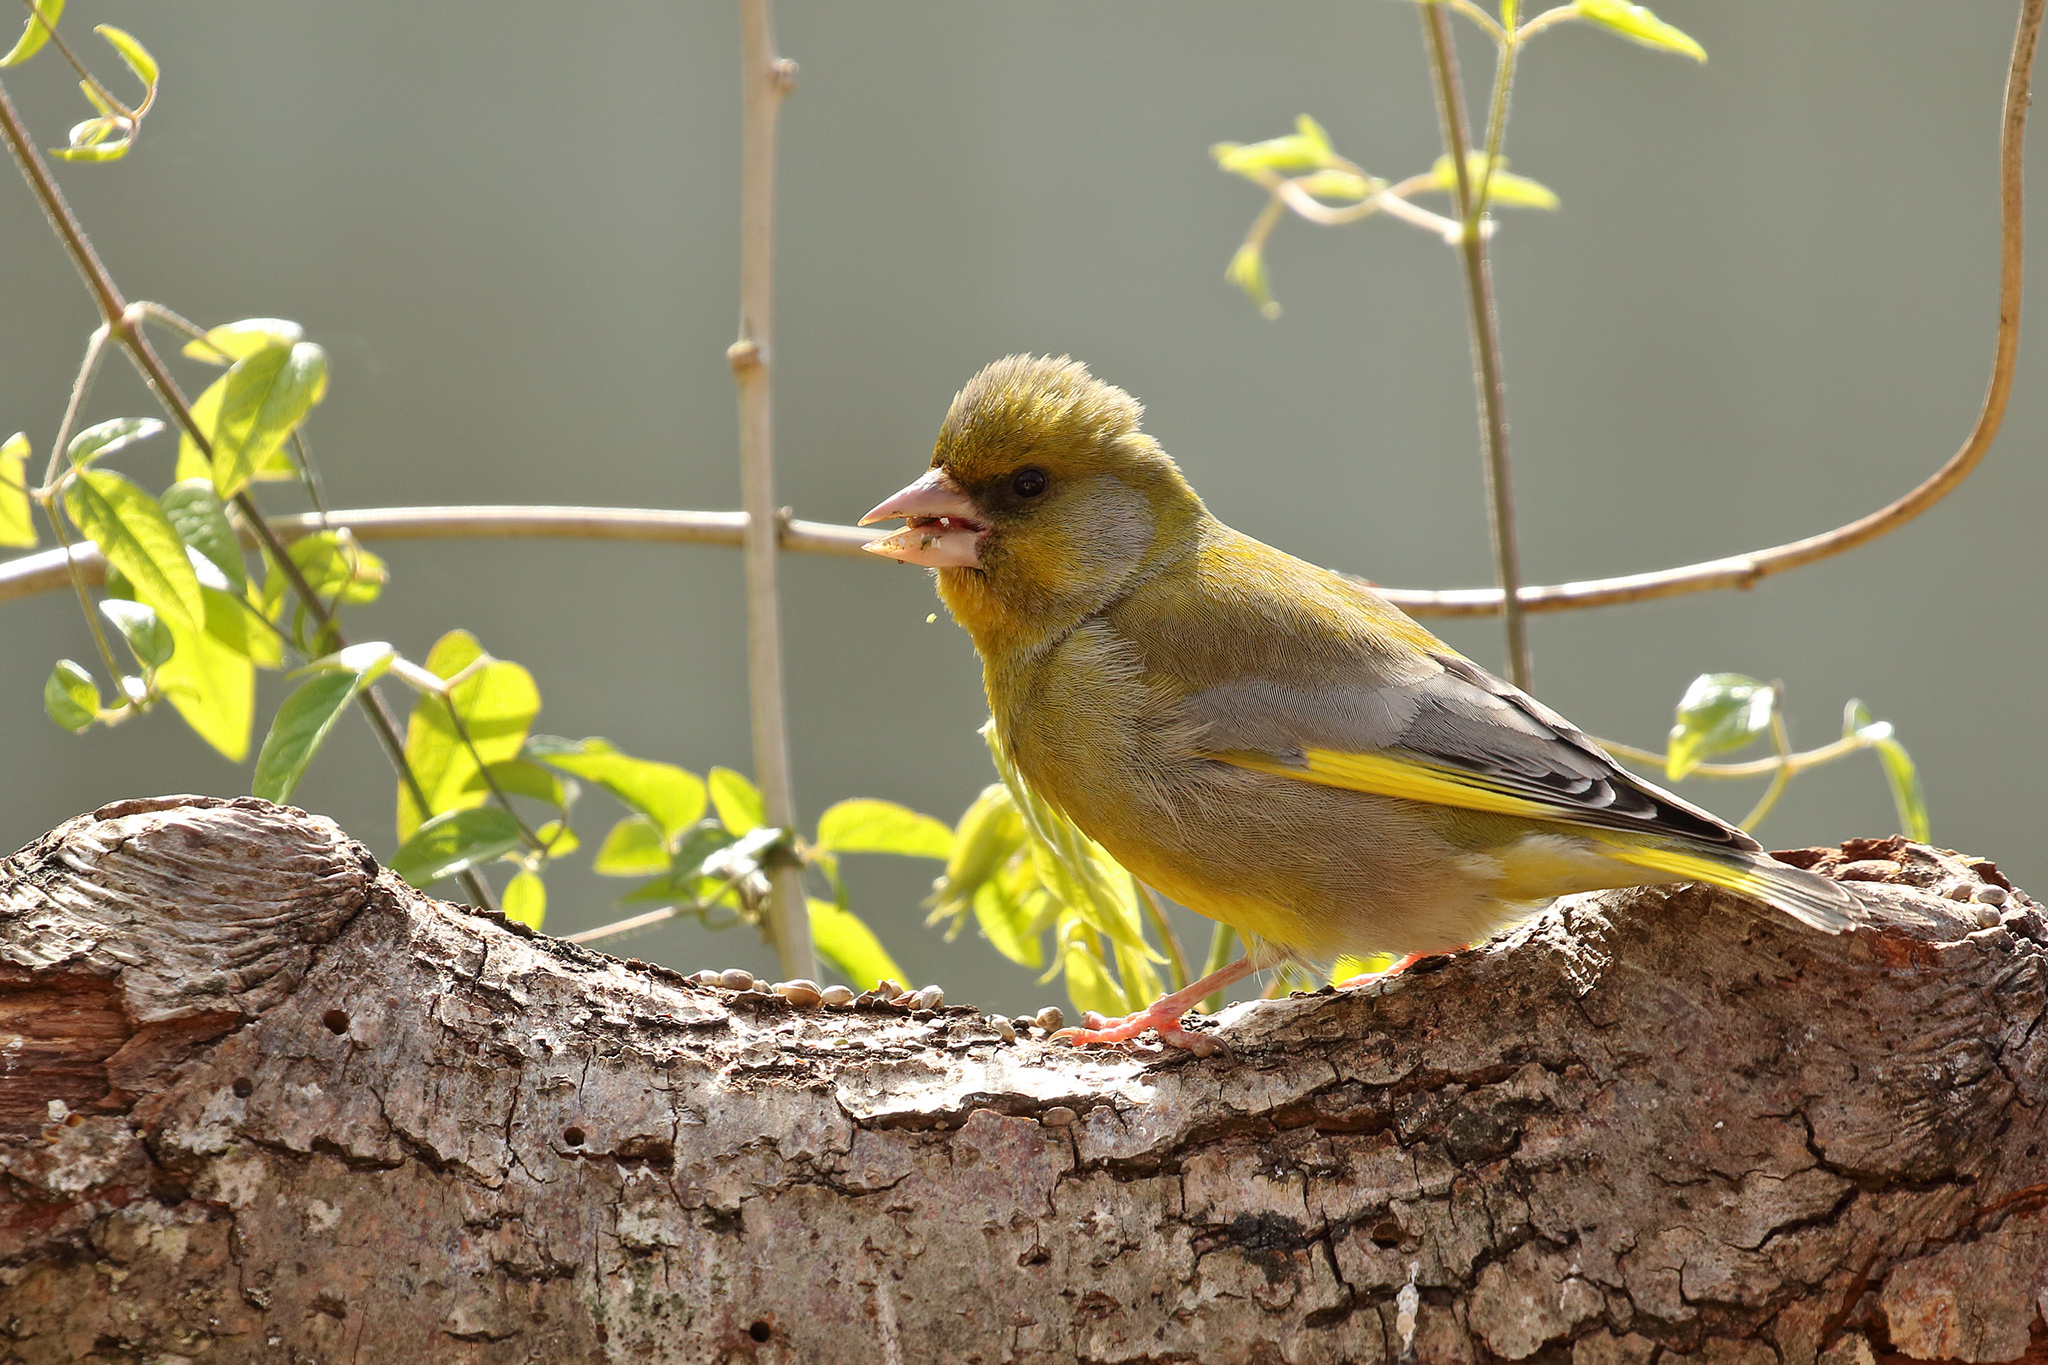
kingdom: Plantae
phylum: Tracheophyta
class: Liliopsida
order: Poales
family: Poaceae
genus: Chloris
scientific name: Chloris chloris
